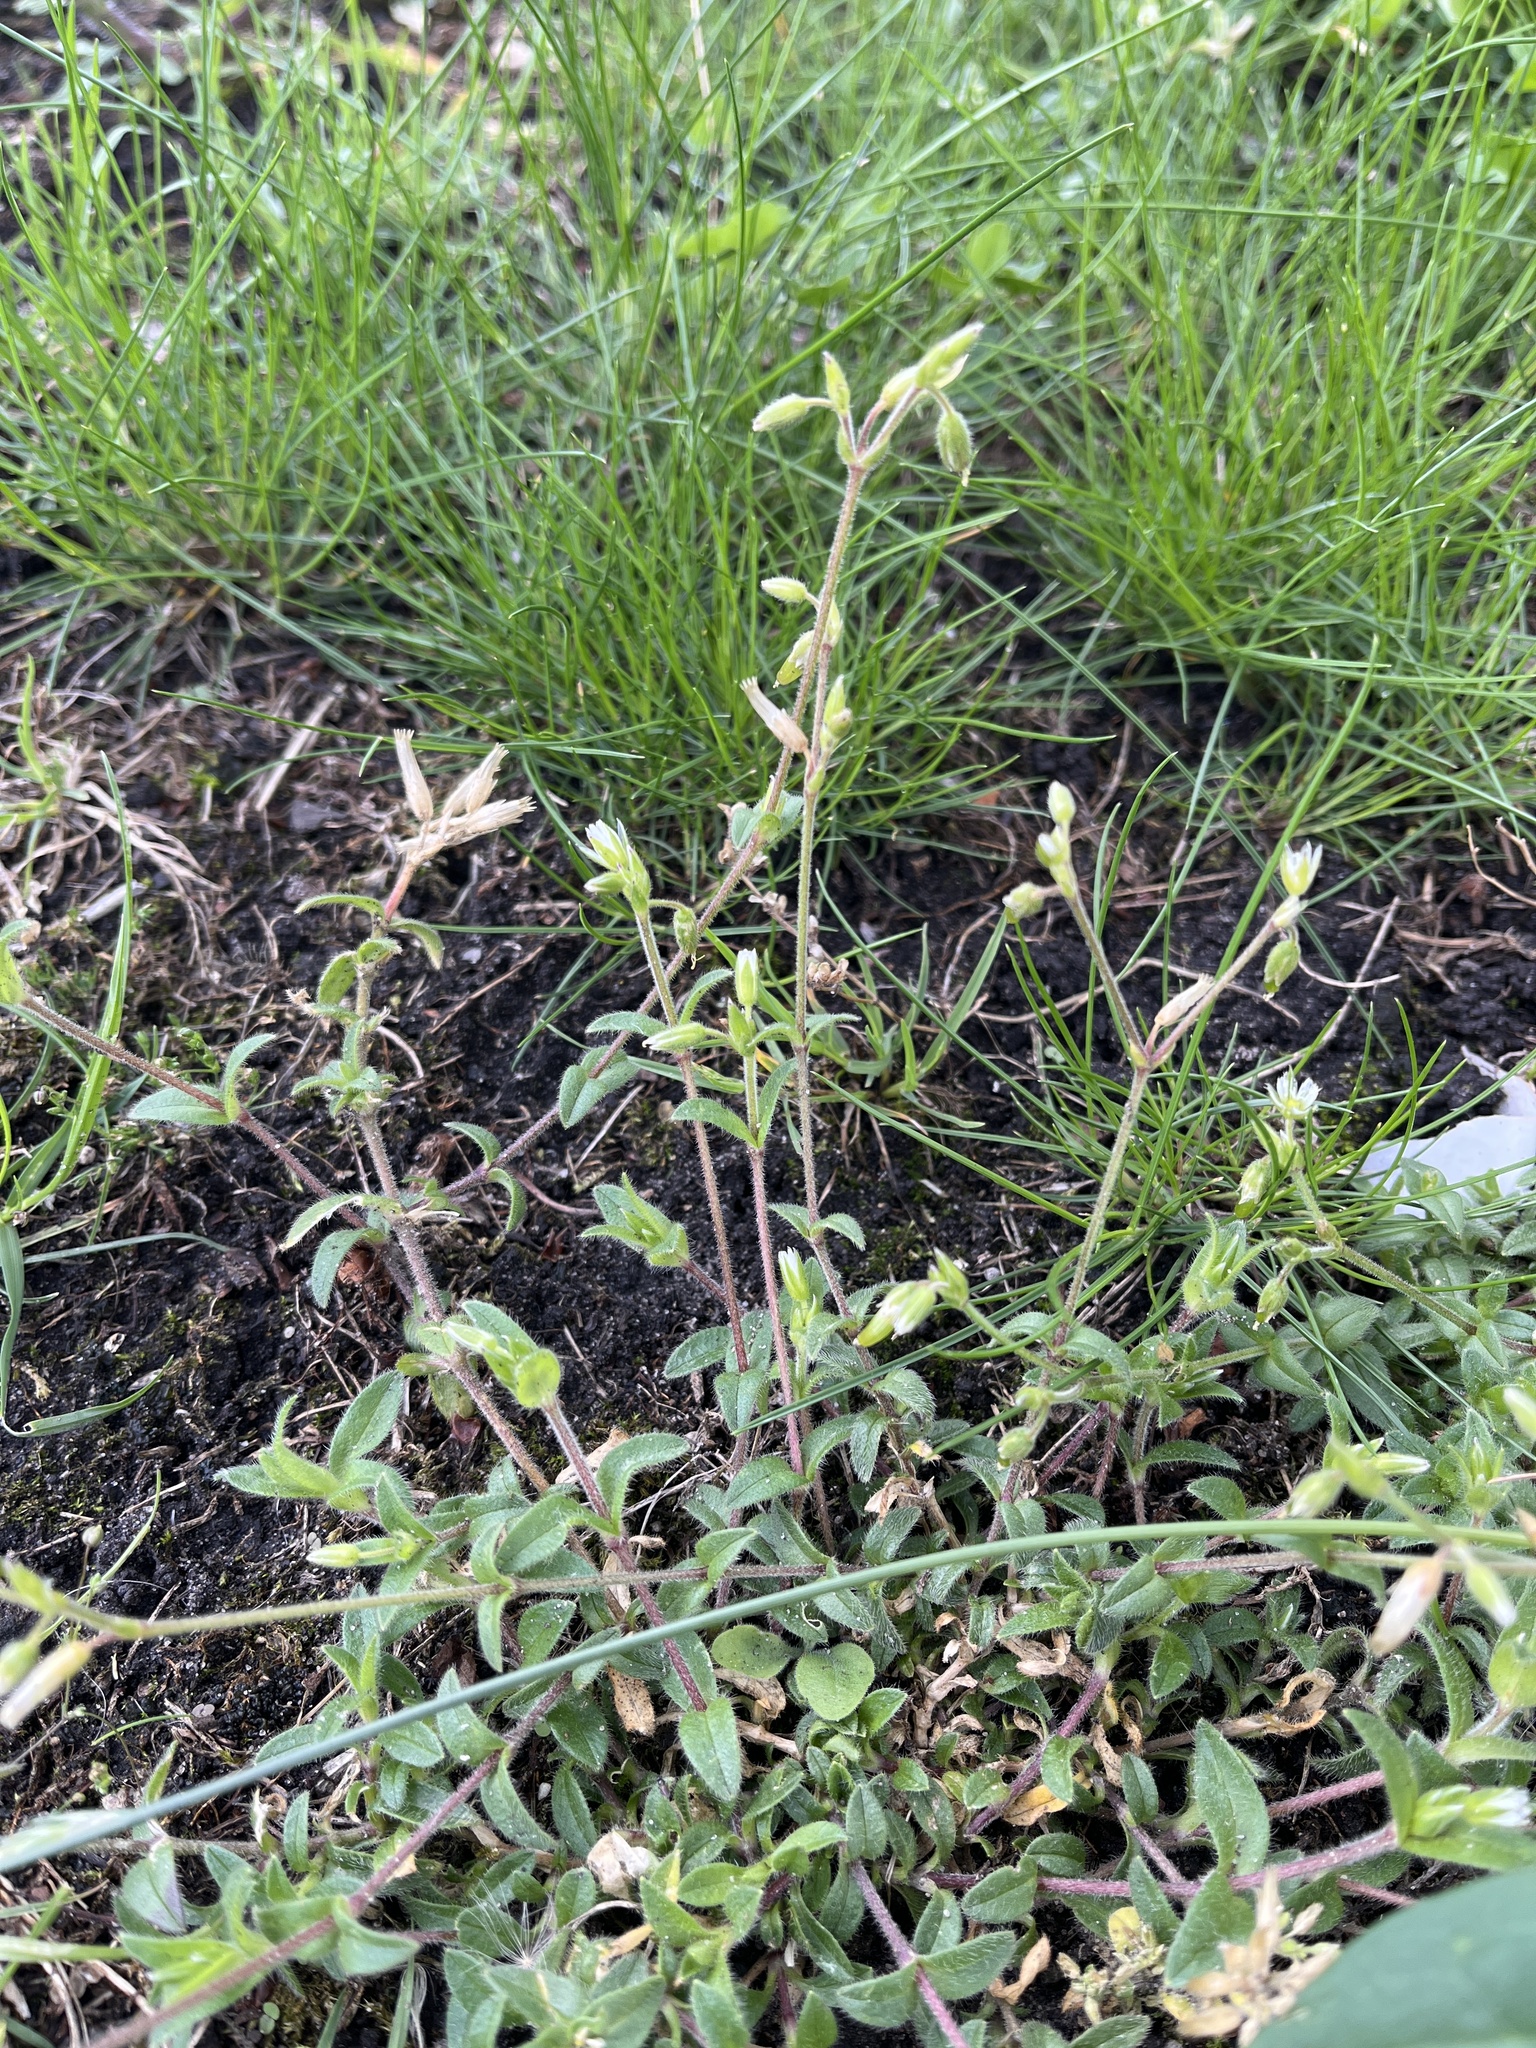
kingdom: Plantae
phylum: Tracheophyta
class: Magnoliopsida
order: Caryophyllales
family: Caryophyllaceae
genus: Cerastium
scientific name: Cerastium fontanum
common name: Common mouse-ear
